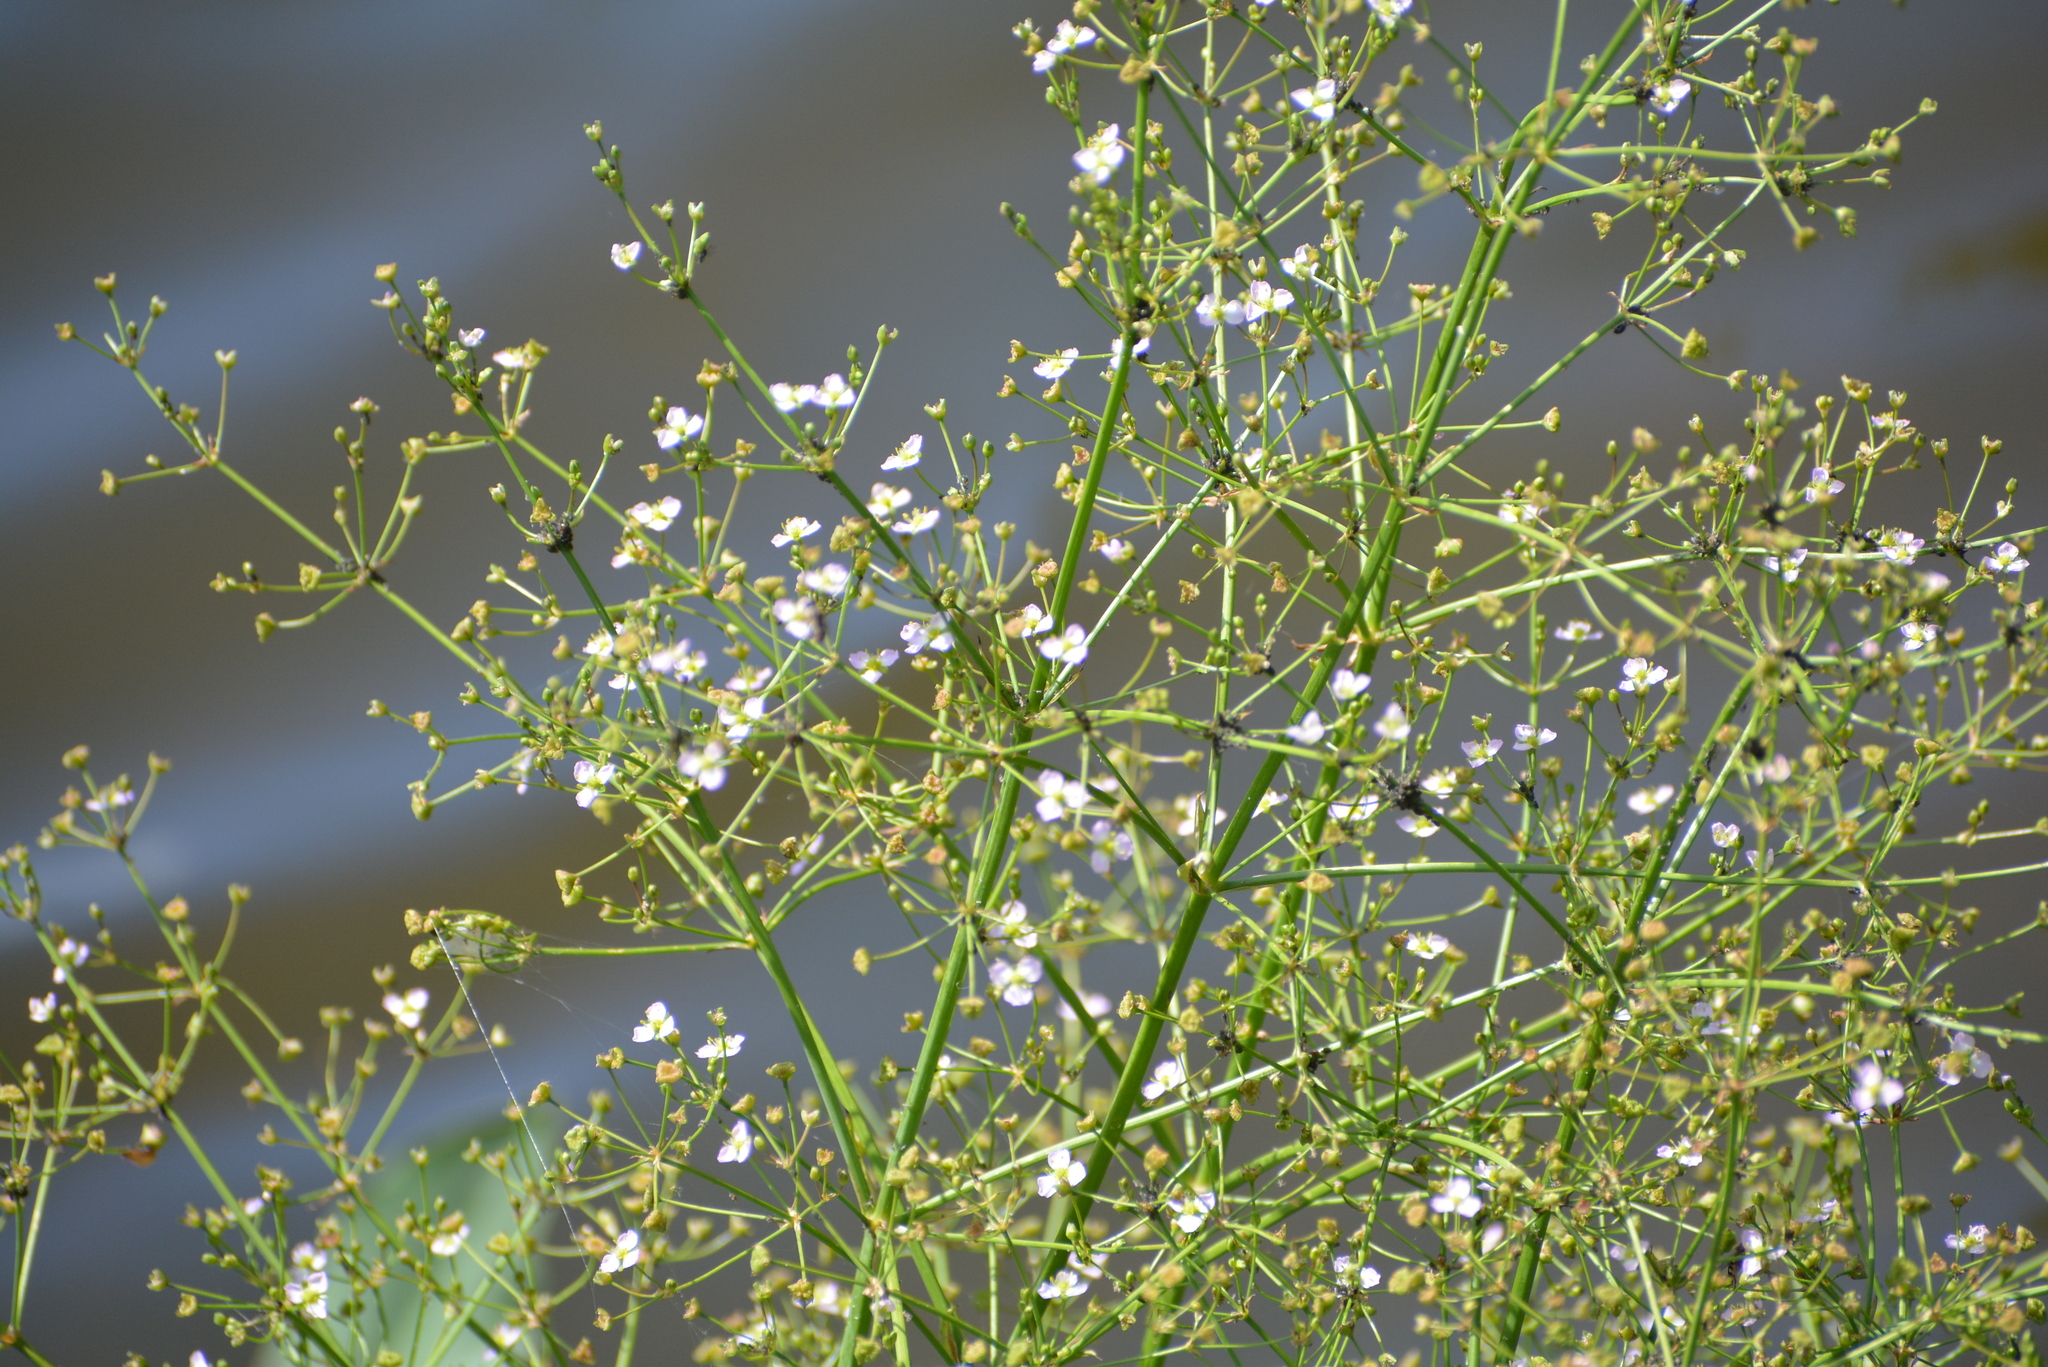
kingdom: Plantae
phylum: Tracheophyta
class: Liliopsida
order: Alismatales
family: Alismataceae
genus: Alisma
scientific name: Alisma plantago-aquatica
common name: Water-plantain
